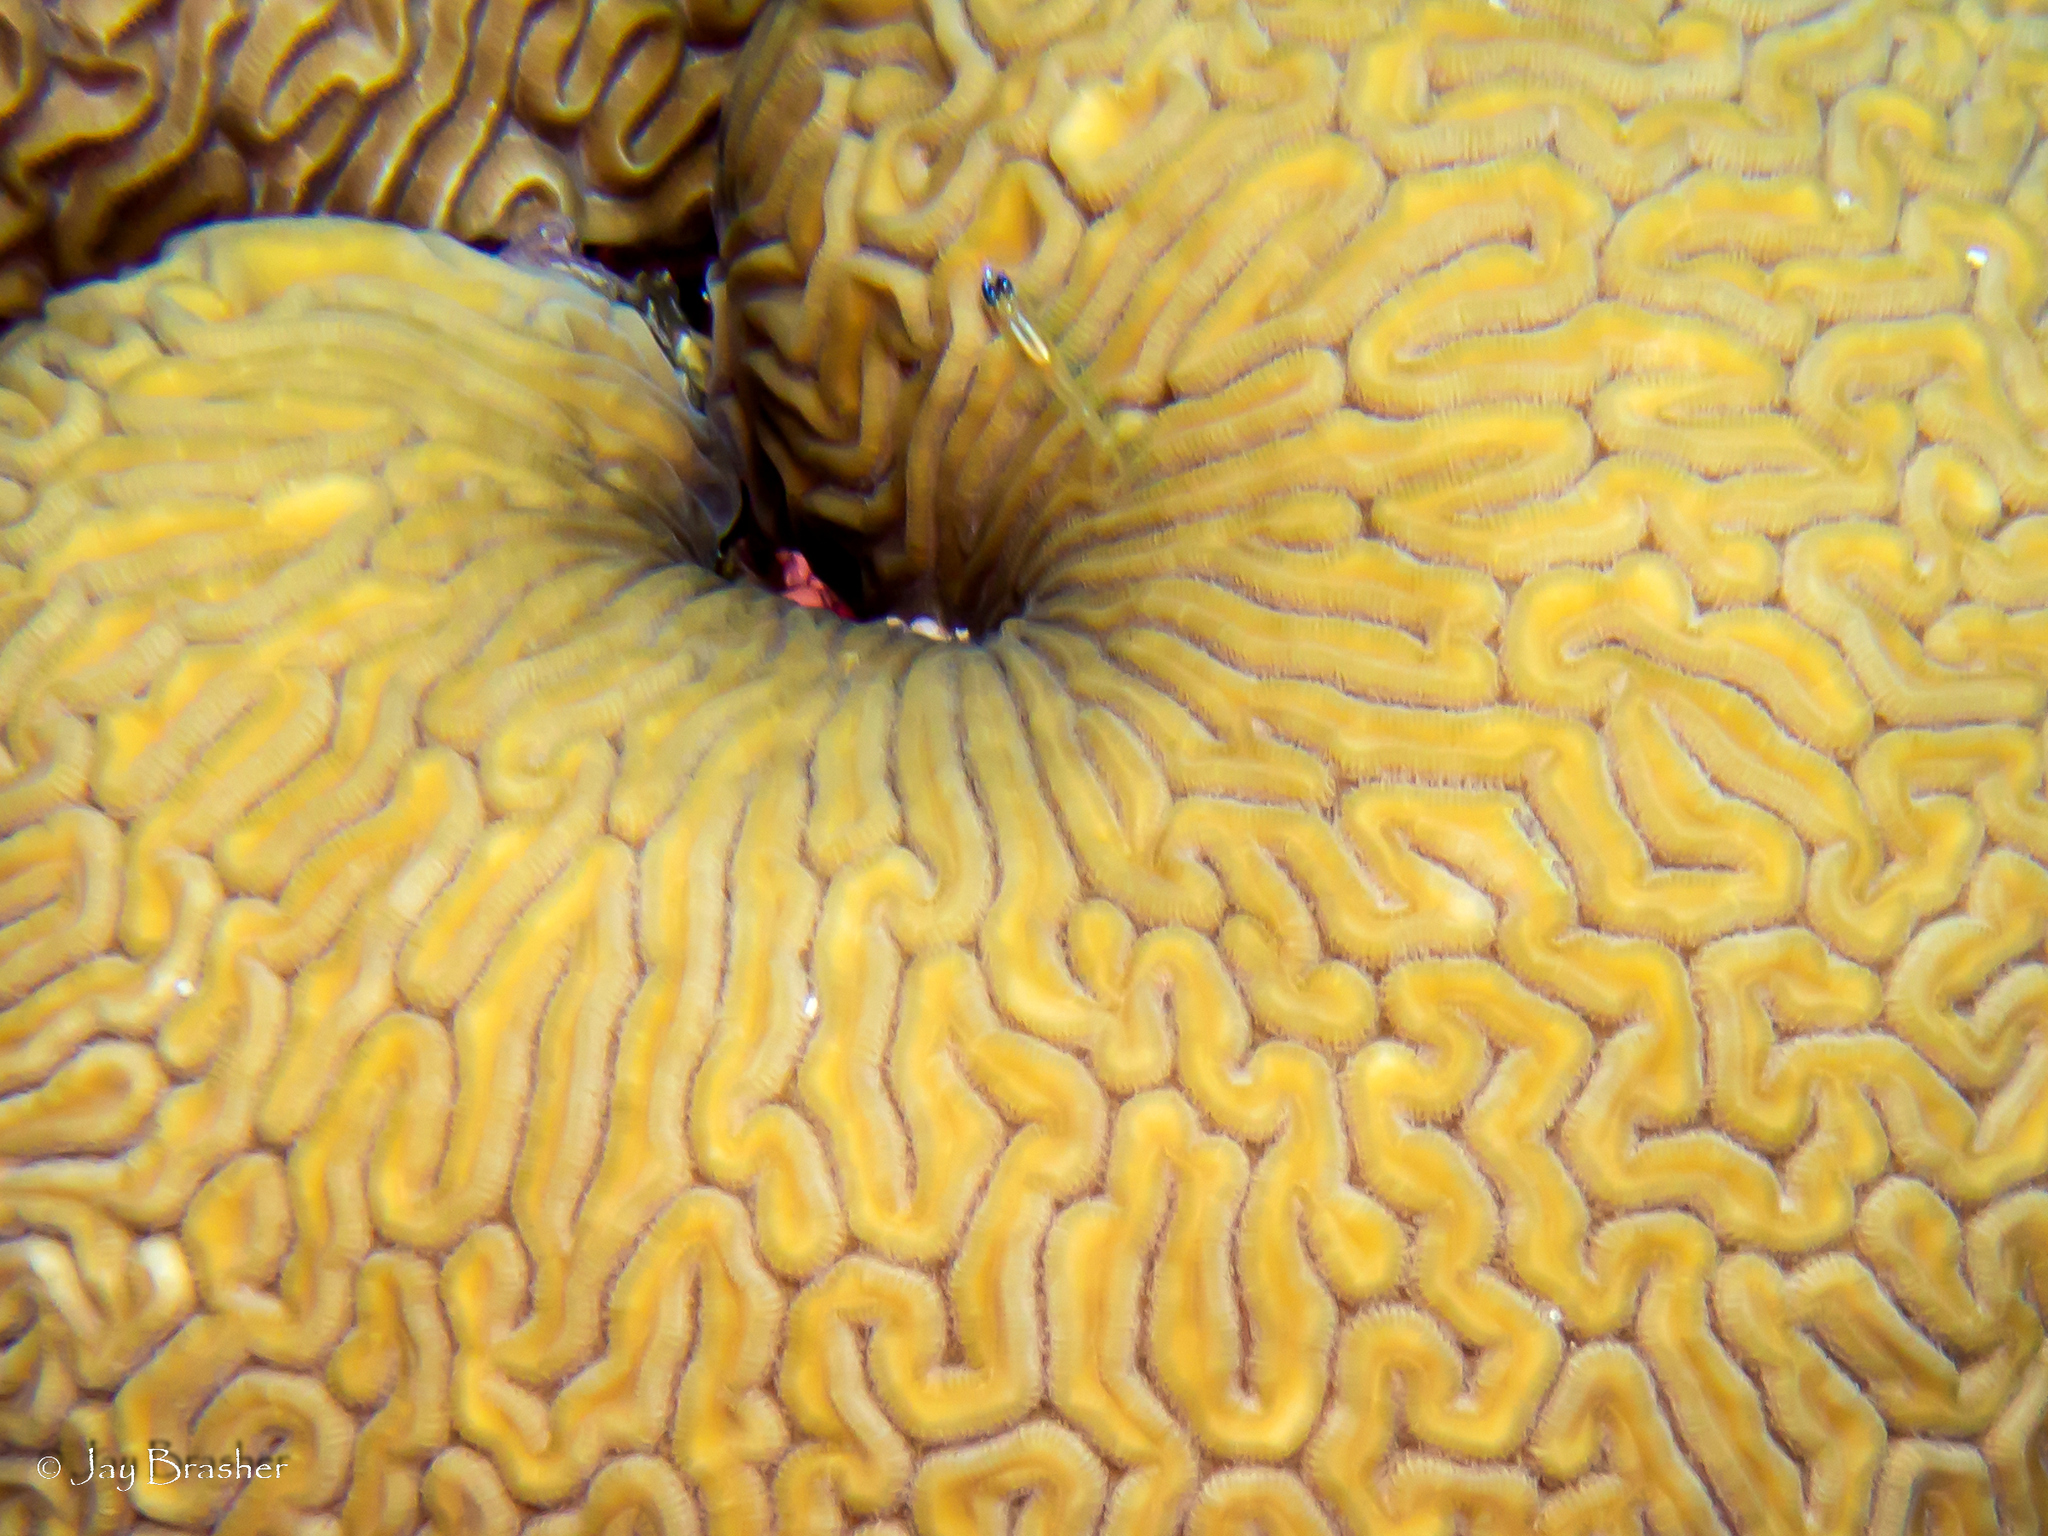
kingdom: Animalia
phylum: Cnidaria
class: Anthozoa
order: Scleractinia
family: Faviidae
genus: Diploria
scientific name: Diploria labyrinthiformis
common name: Grooved brain coral
